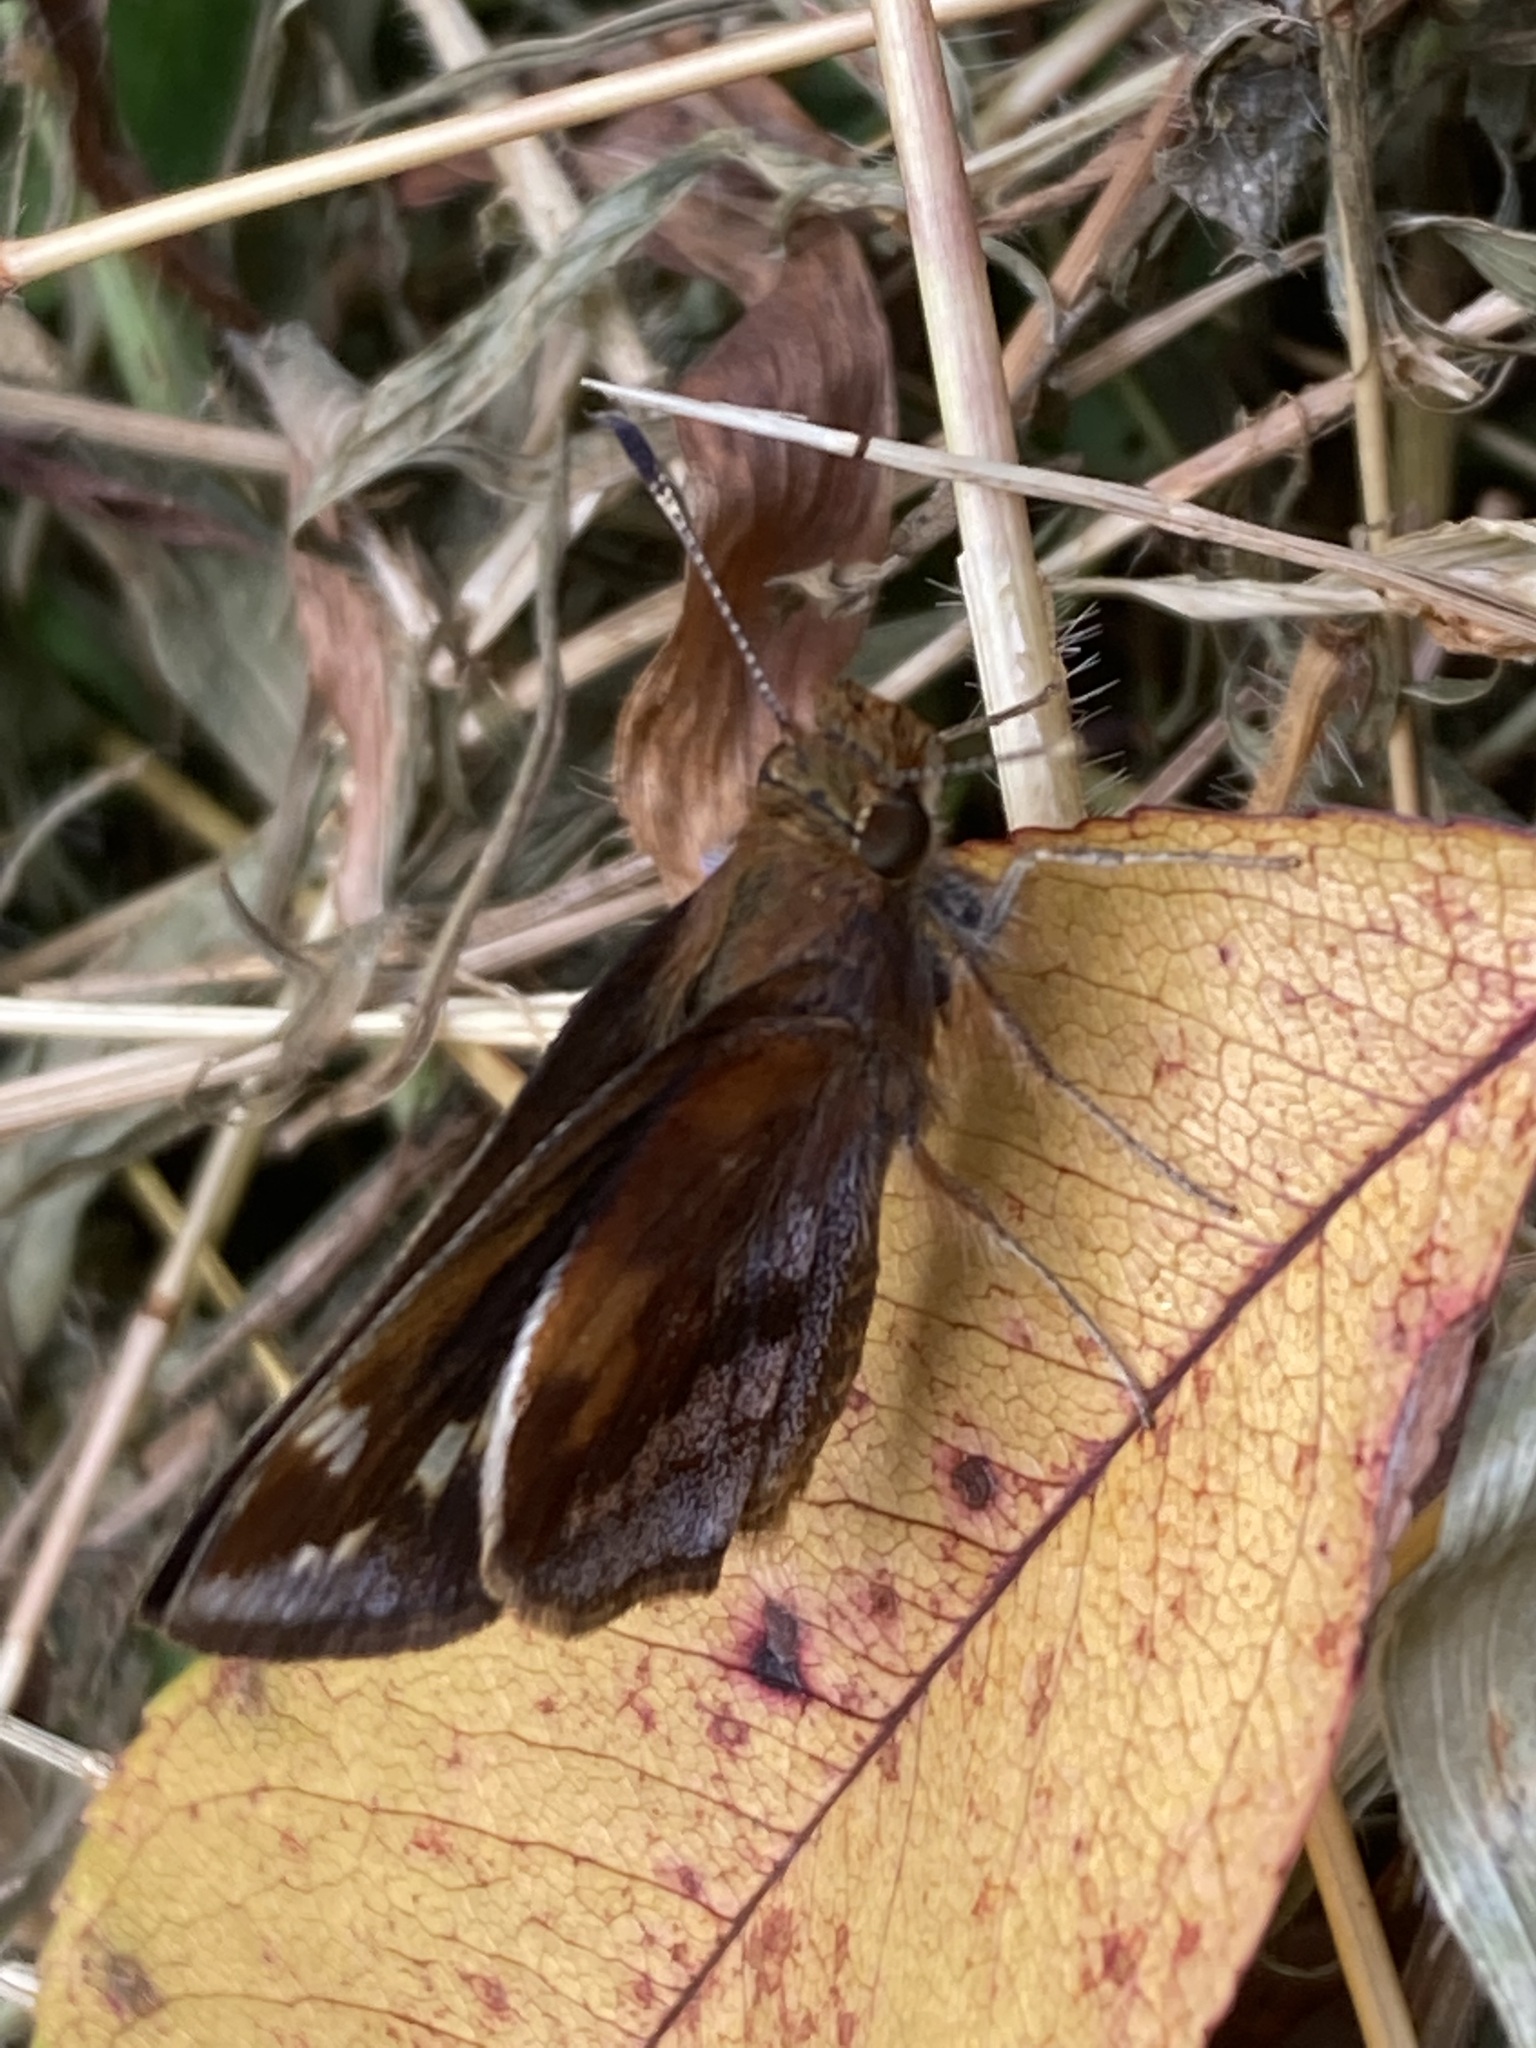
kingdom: Animalia
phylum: Arthropoda
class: Insecta
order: Lepidoptera
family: Hesperiidae
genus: Lon
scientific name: Lon zabulon
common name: Zabulon skipper
